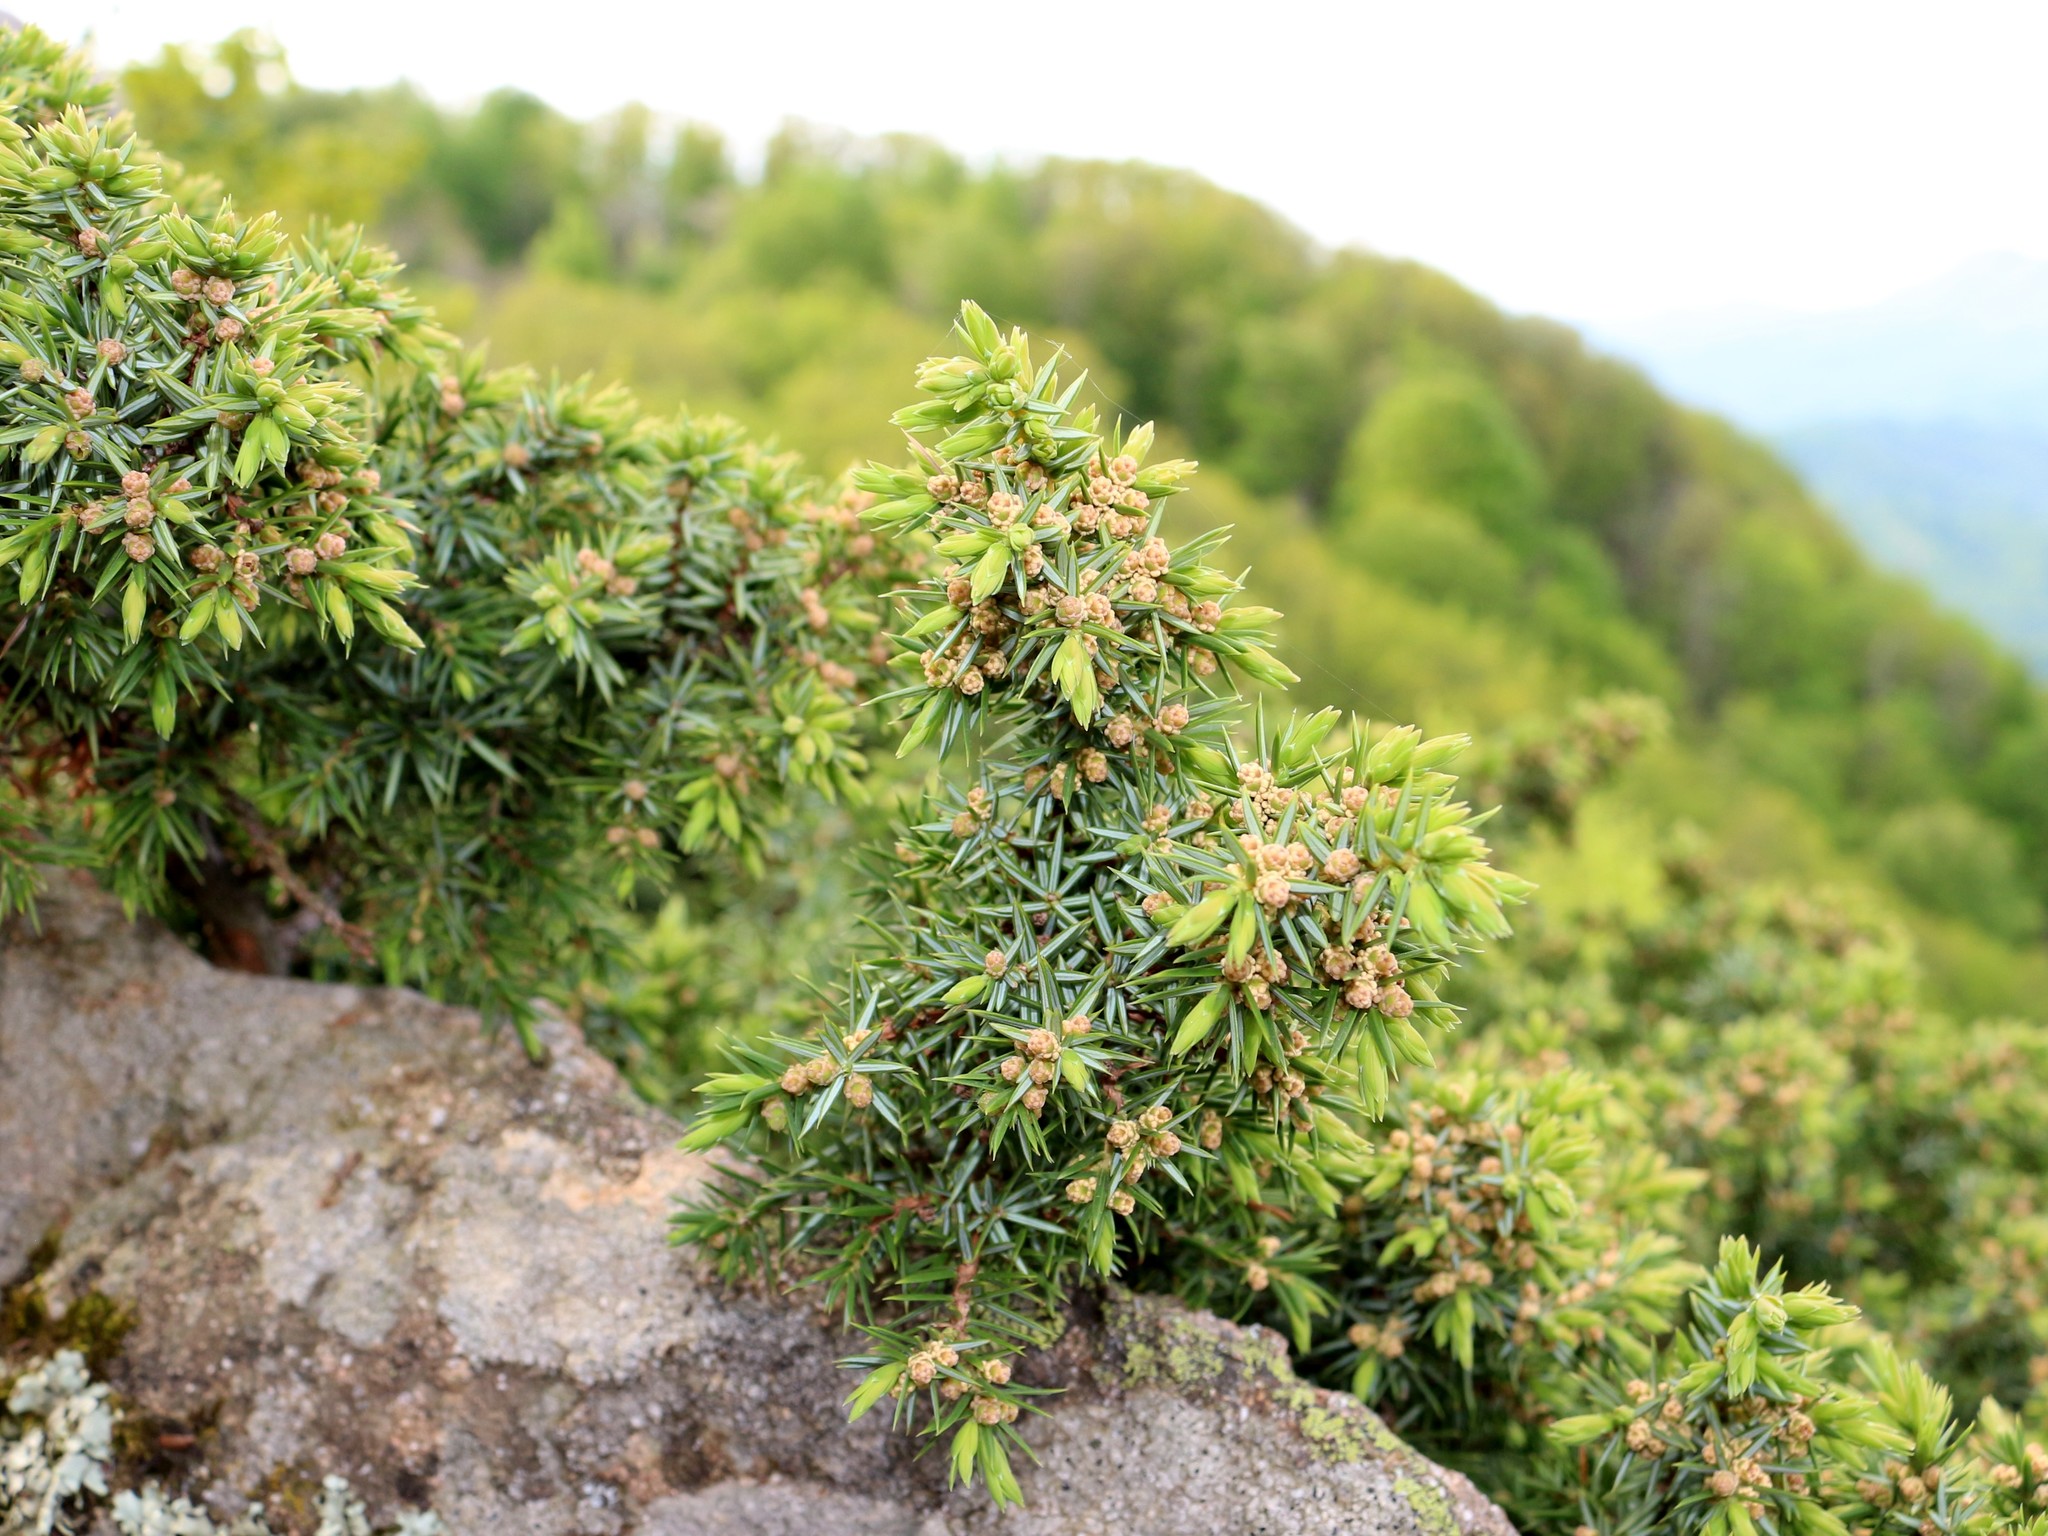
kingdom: Plantae
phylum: Tracheophyta
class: Pinopsida
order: Pinales
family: Cupressaceae
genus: Juniperus
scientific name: Juniperus communis
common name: Common juniper
